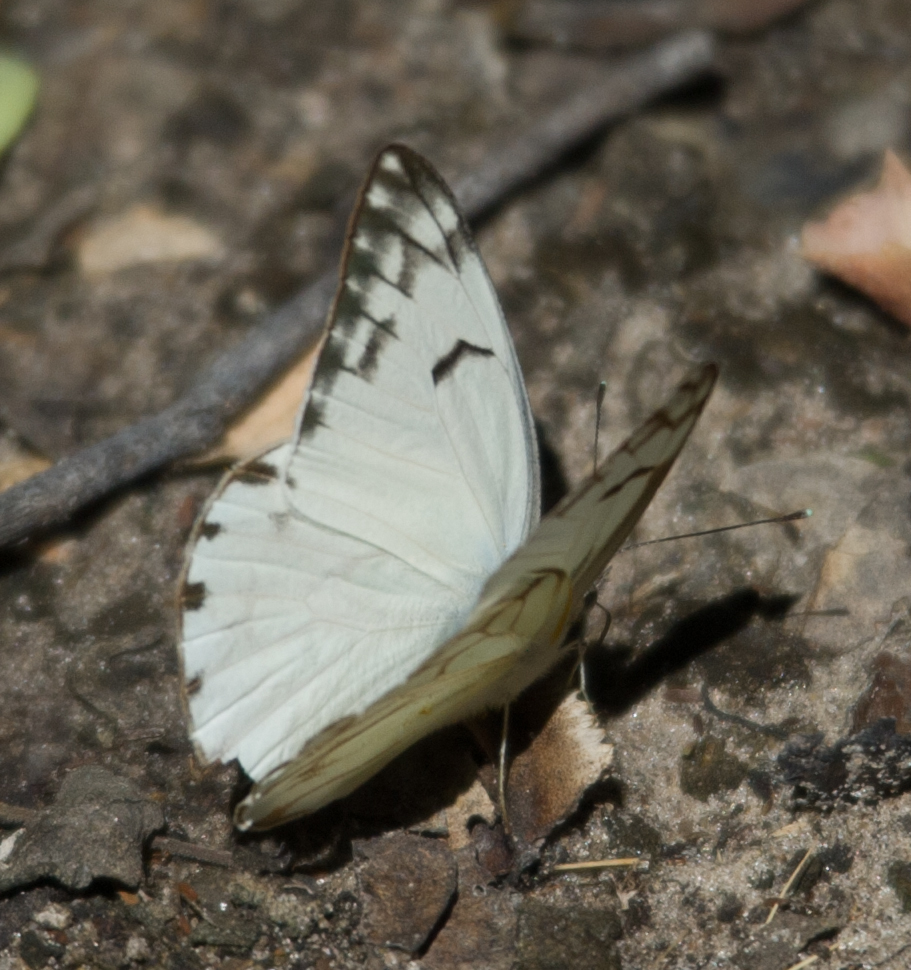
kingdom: Animalia
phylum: Arthropoda
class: Insecta
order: Lepidoptera
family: Pieridae
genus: Belenois
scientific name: Belenois gidica
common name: Pointed caper white
